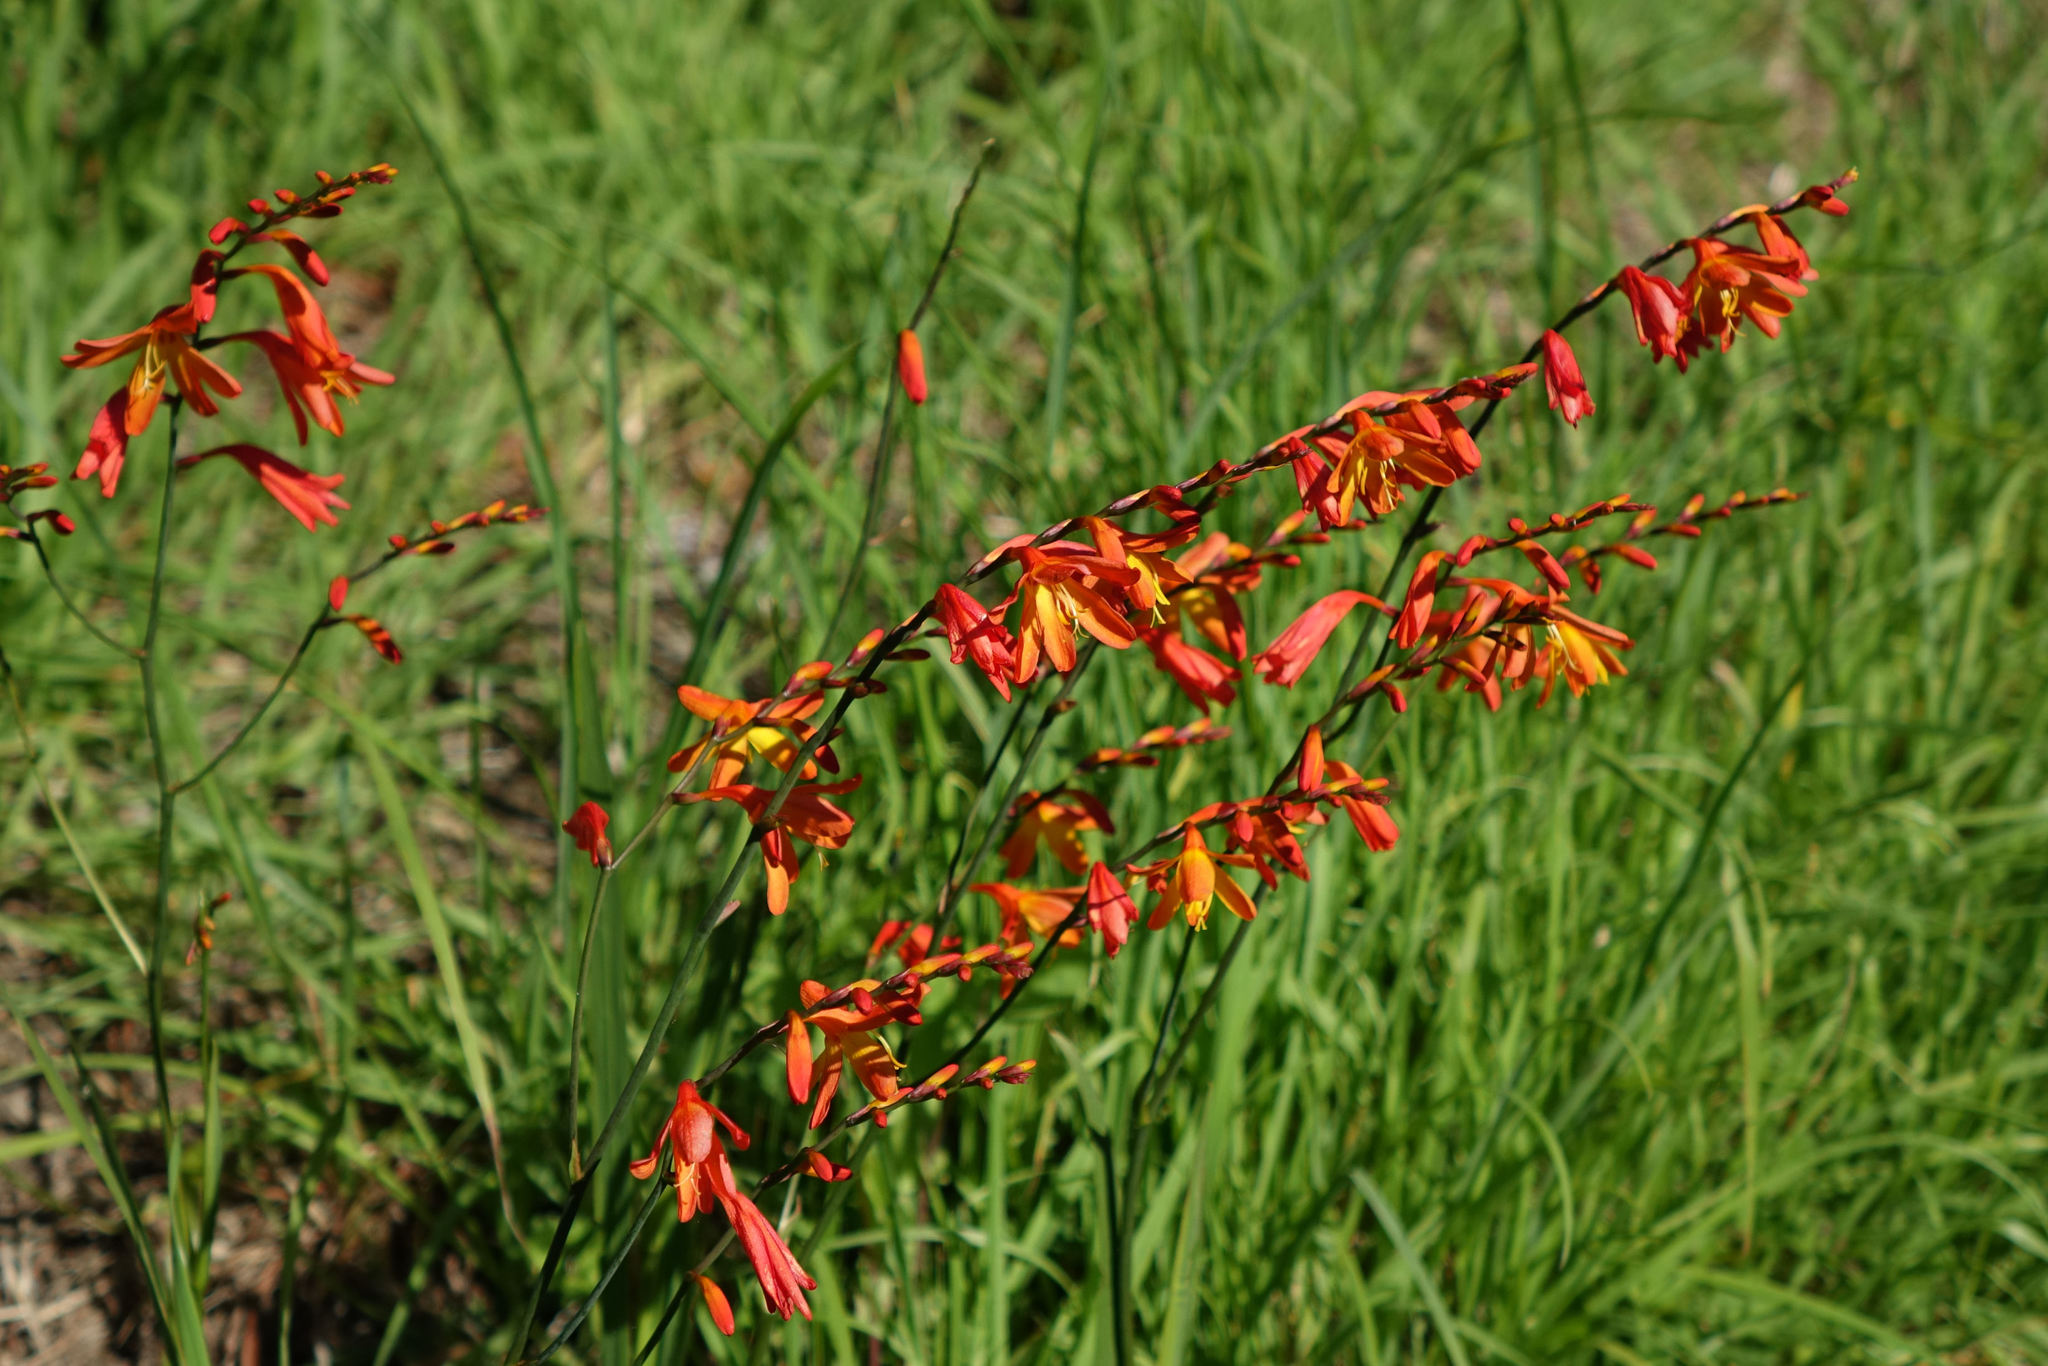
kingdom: Plantae
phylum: Tracheophyta
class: Liliopsida
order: Asparagales
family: Iridaceae
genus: Crocosmia
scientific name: Crocosmia crocosmiiflora
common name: Montbretia
